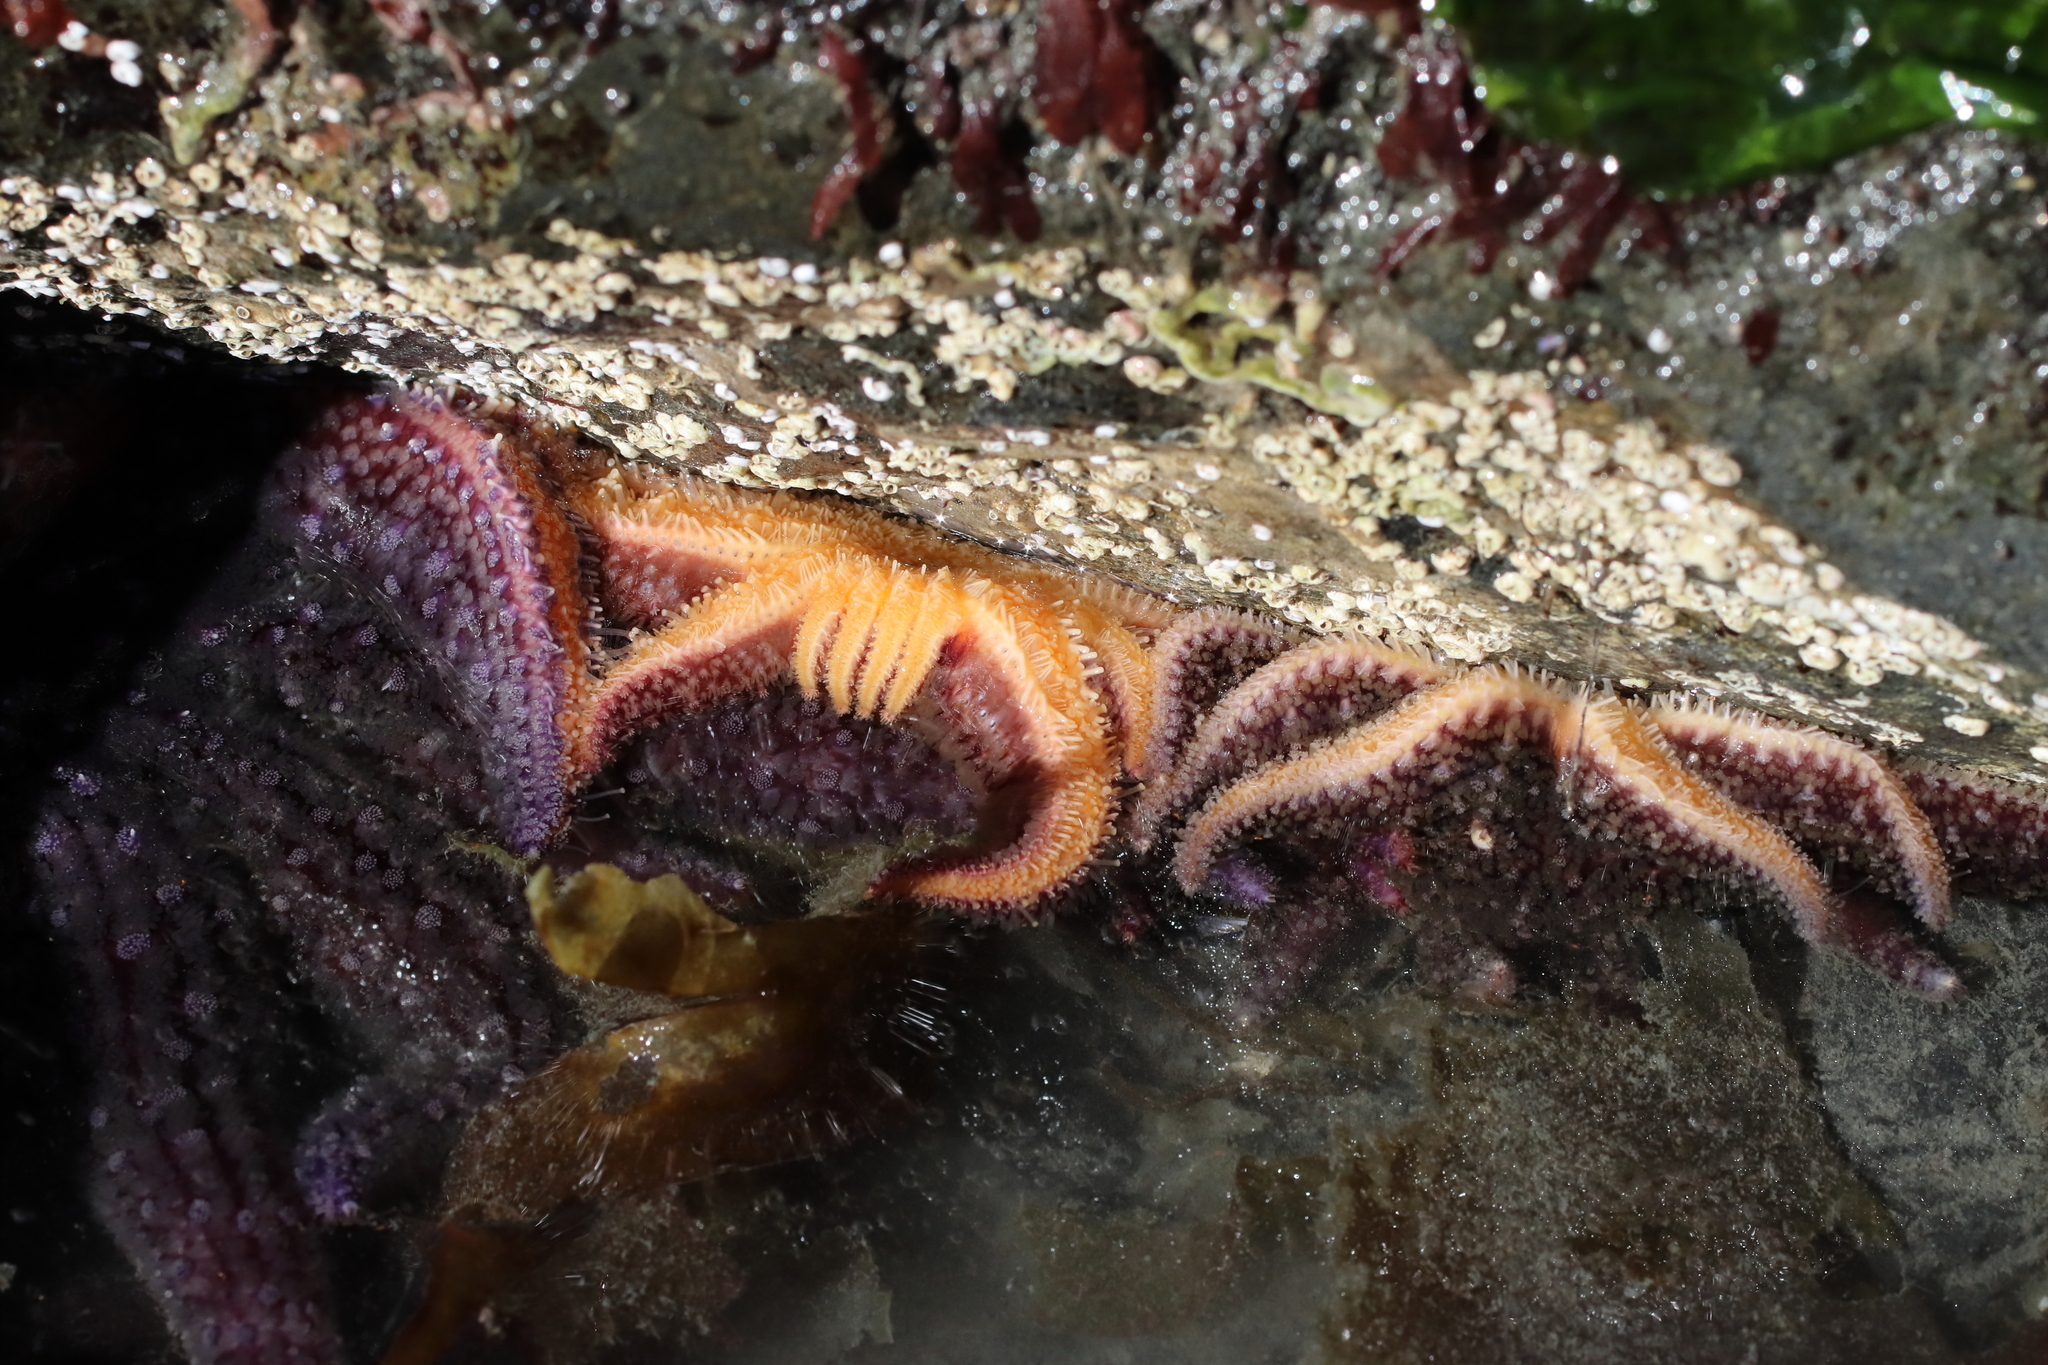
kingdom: Animalia
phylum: Echinodermata
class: Asteroidea
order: Forcipulatida
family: Asteriidae
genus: Pycnopodia
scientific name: Pycnopodia helianthoides
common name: Rag mop
